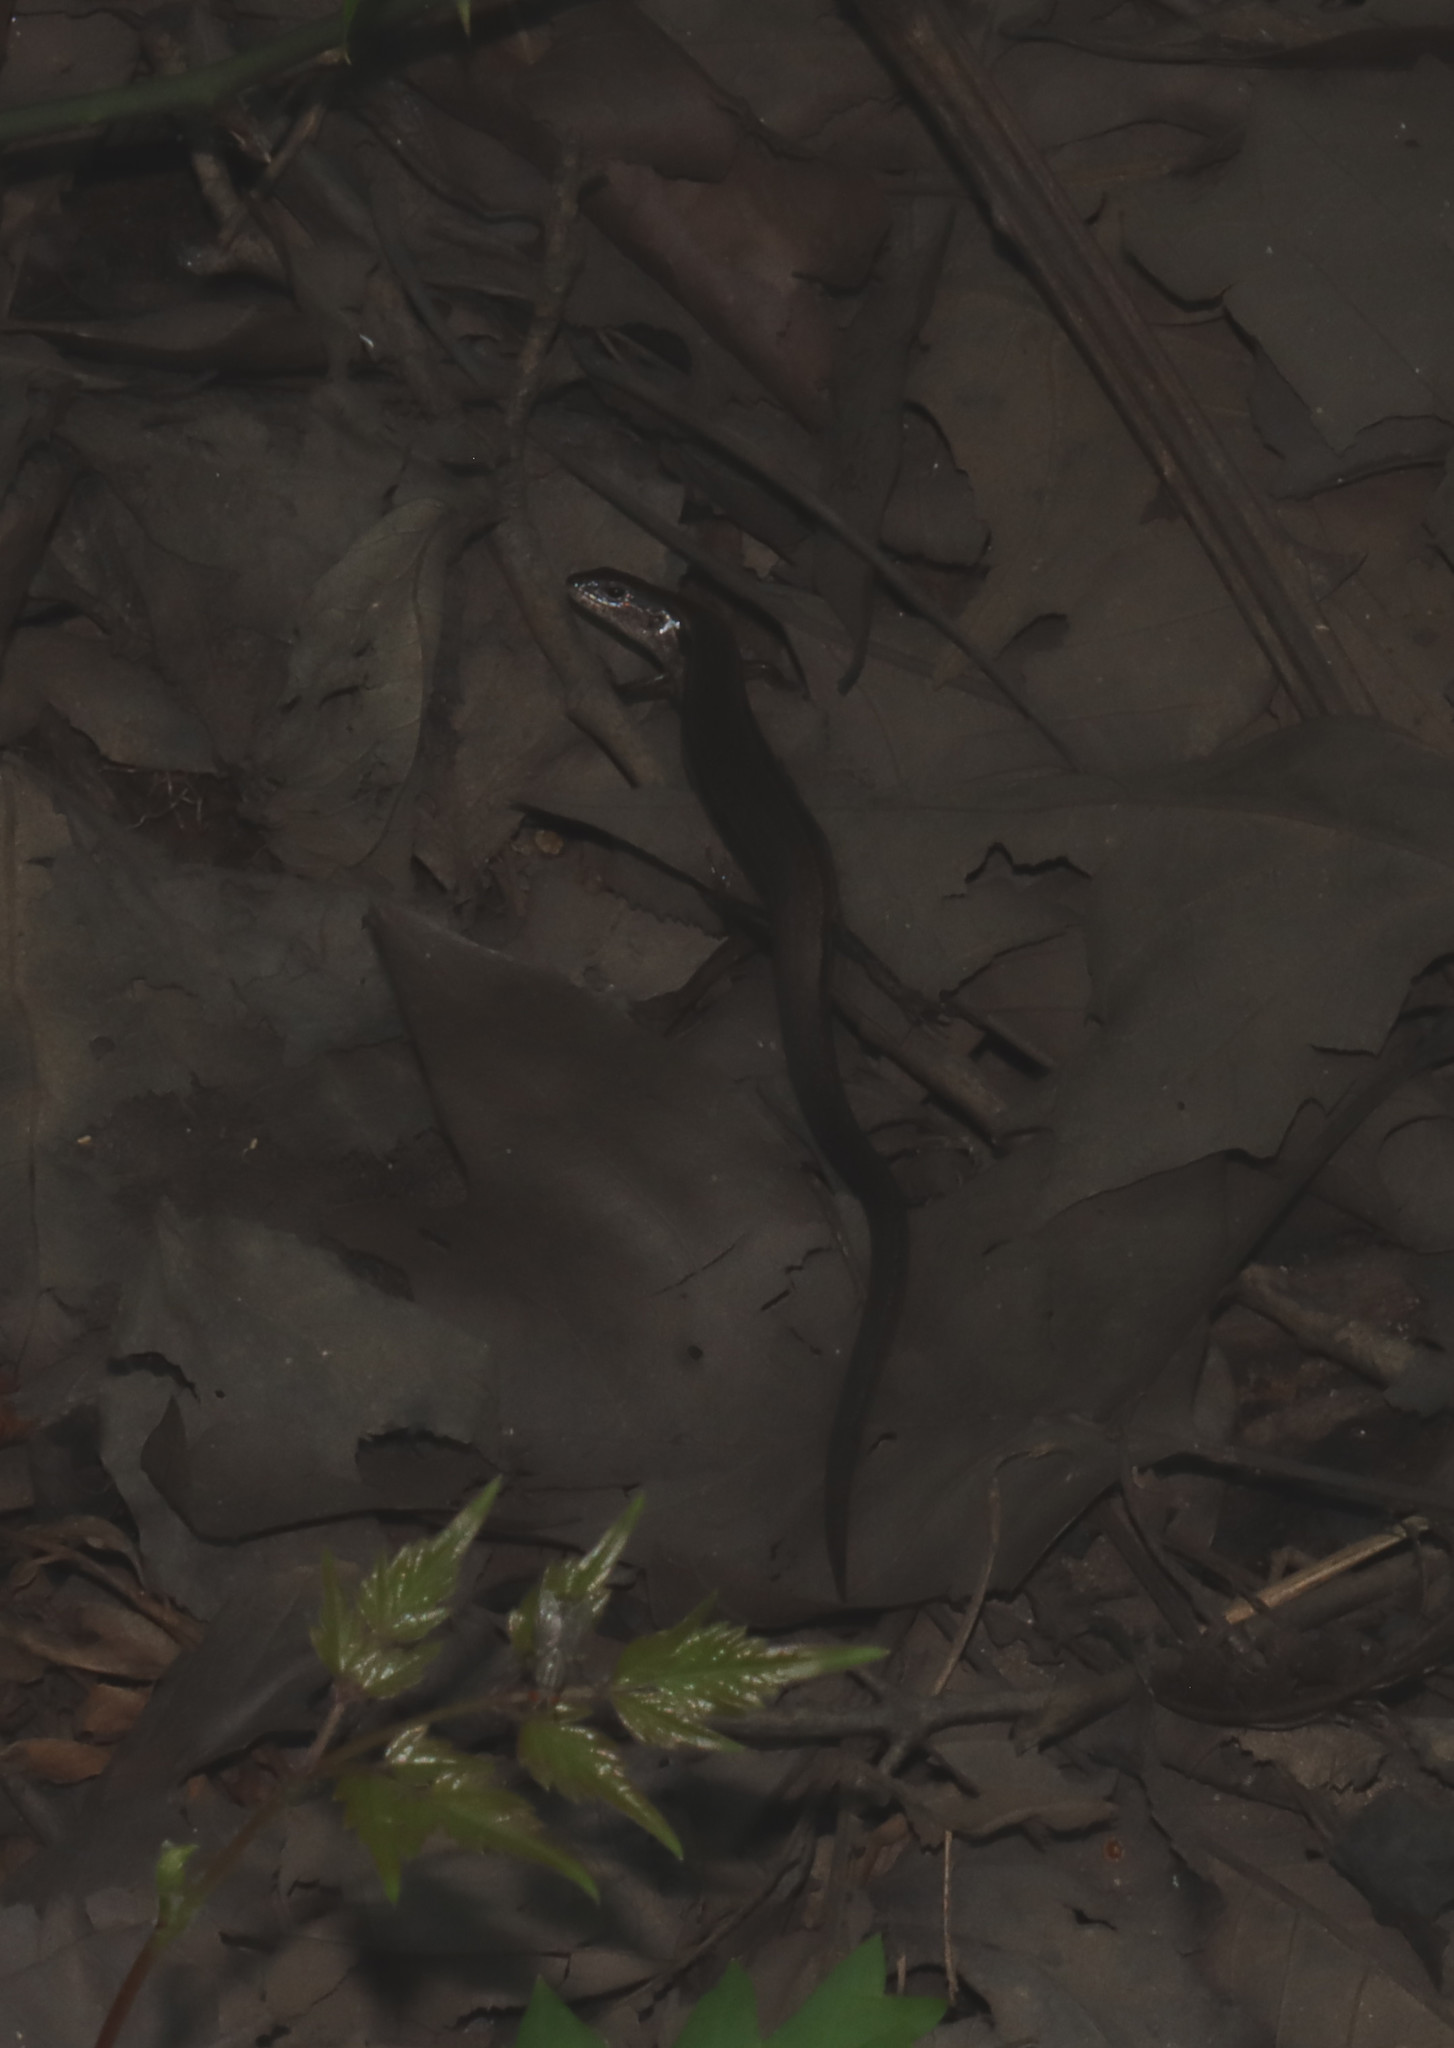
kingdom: Animalia
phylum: Chordata
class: Squamata
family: Scincidae
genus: Scincella
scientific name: Scincella lateralis
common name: Ground skink
